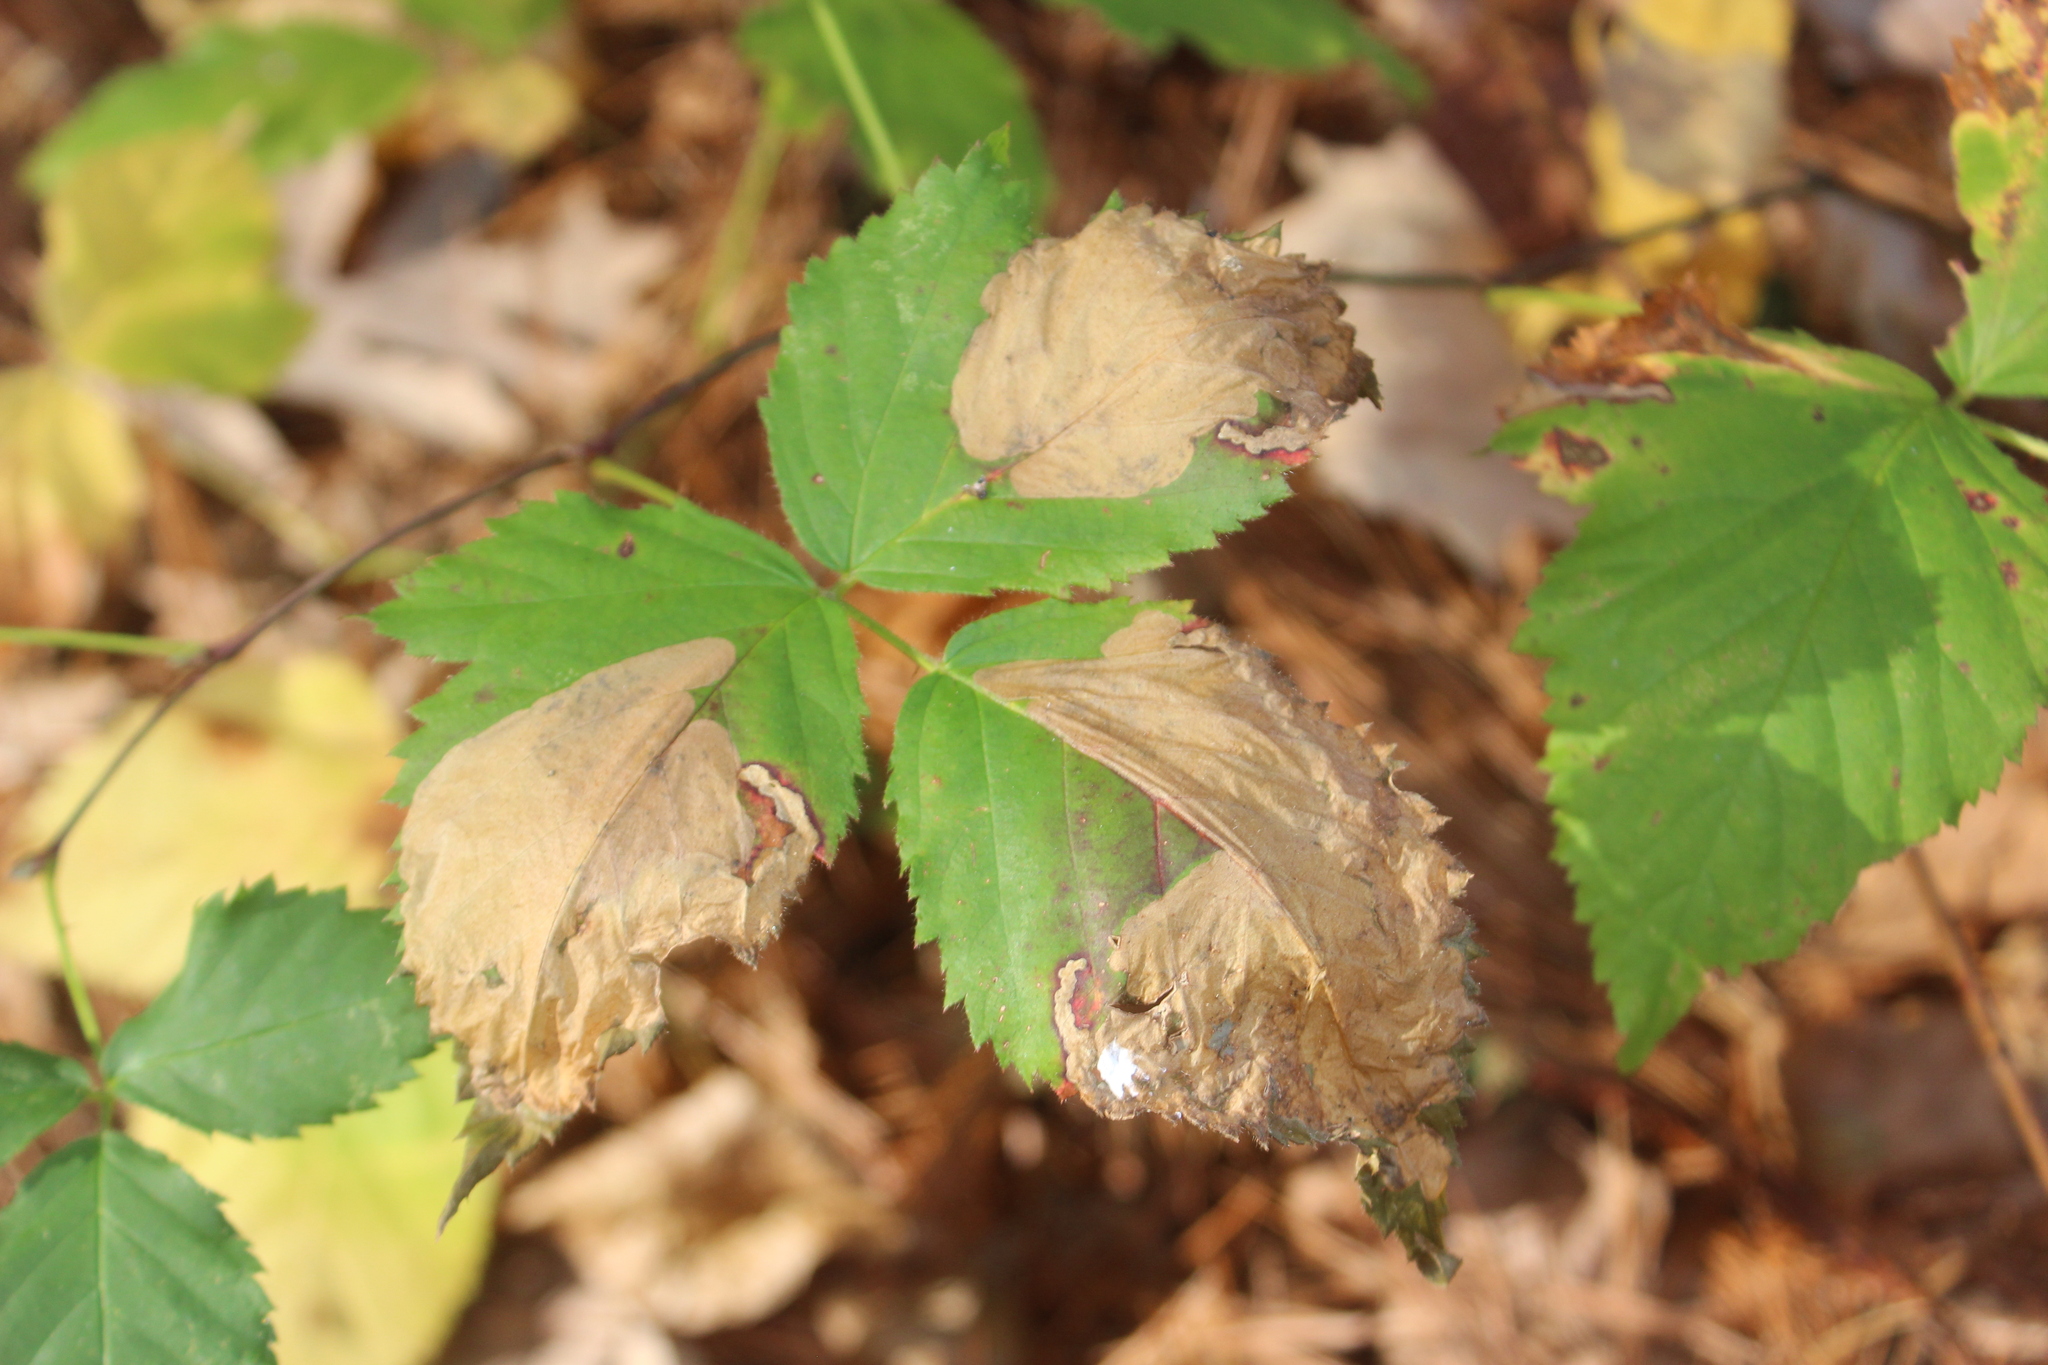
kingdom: Animalia
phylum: Arthropoda
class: Insecta
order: Hymenoptera
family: Tenthredinidae
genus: Metallus
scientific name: Metallus rohweri
